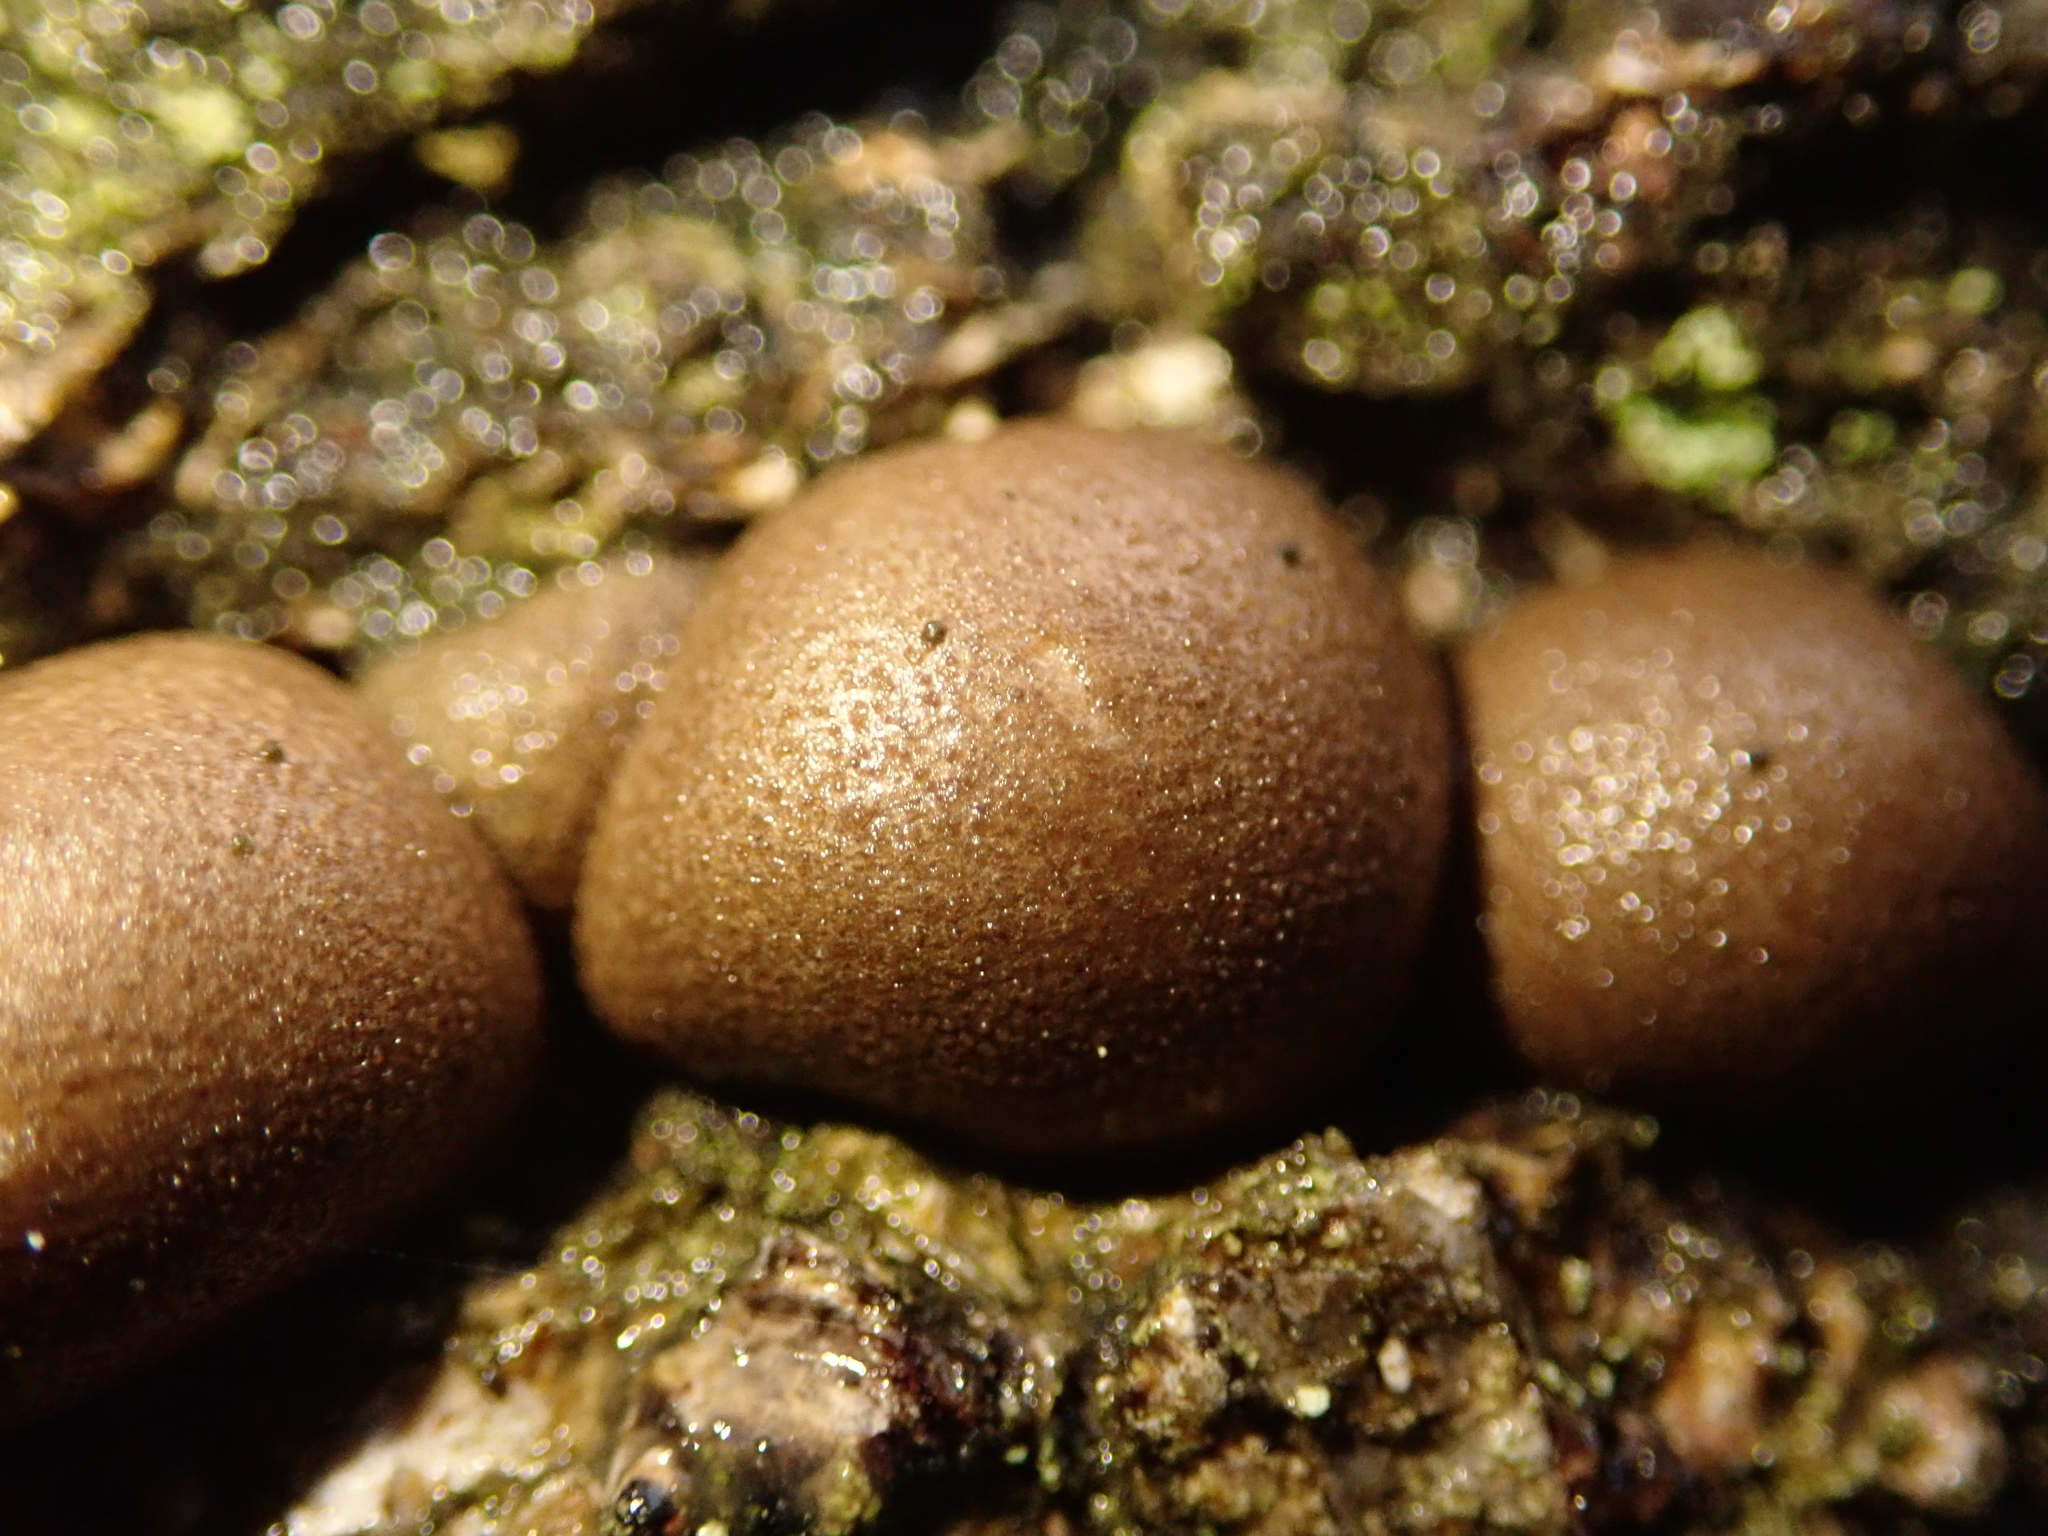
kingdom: Protozoa
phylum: Mycetozoa
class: Myxomycetes
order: Cribrariales
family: Tubiferaceae
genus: Lycogala
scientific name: Lycogala epidendrum
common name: Wolf's milk
